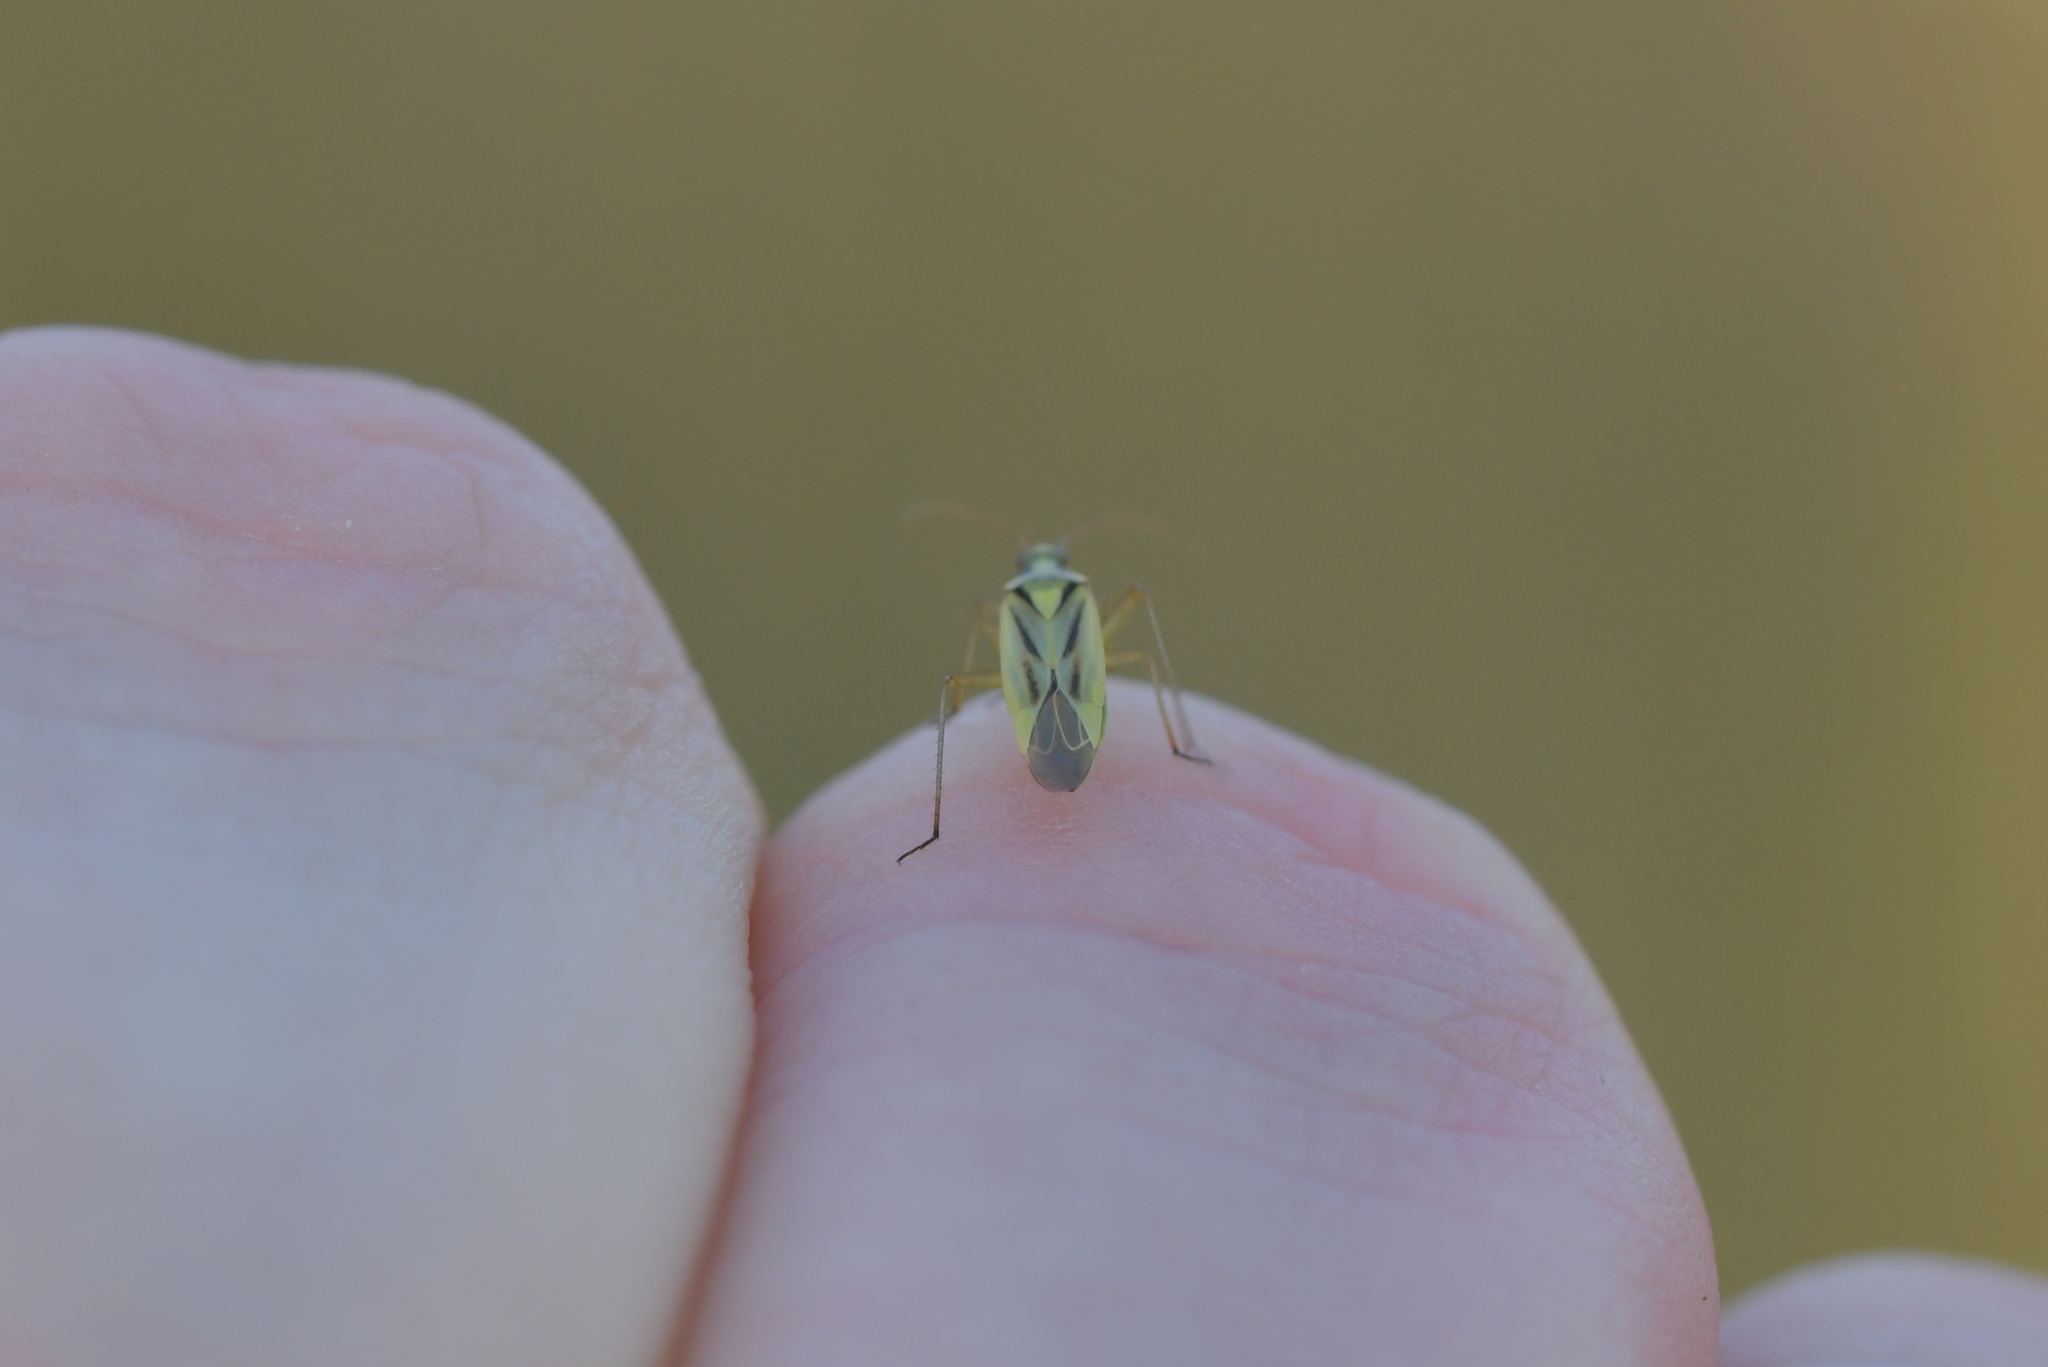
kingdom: Animalia
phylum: Arthropoda
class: Insecta
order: Hemiptera
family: Miridae
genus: Stenotus
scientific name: Stenotus binotatus
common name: Plant bug
